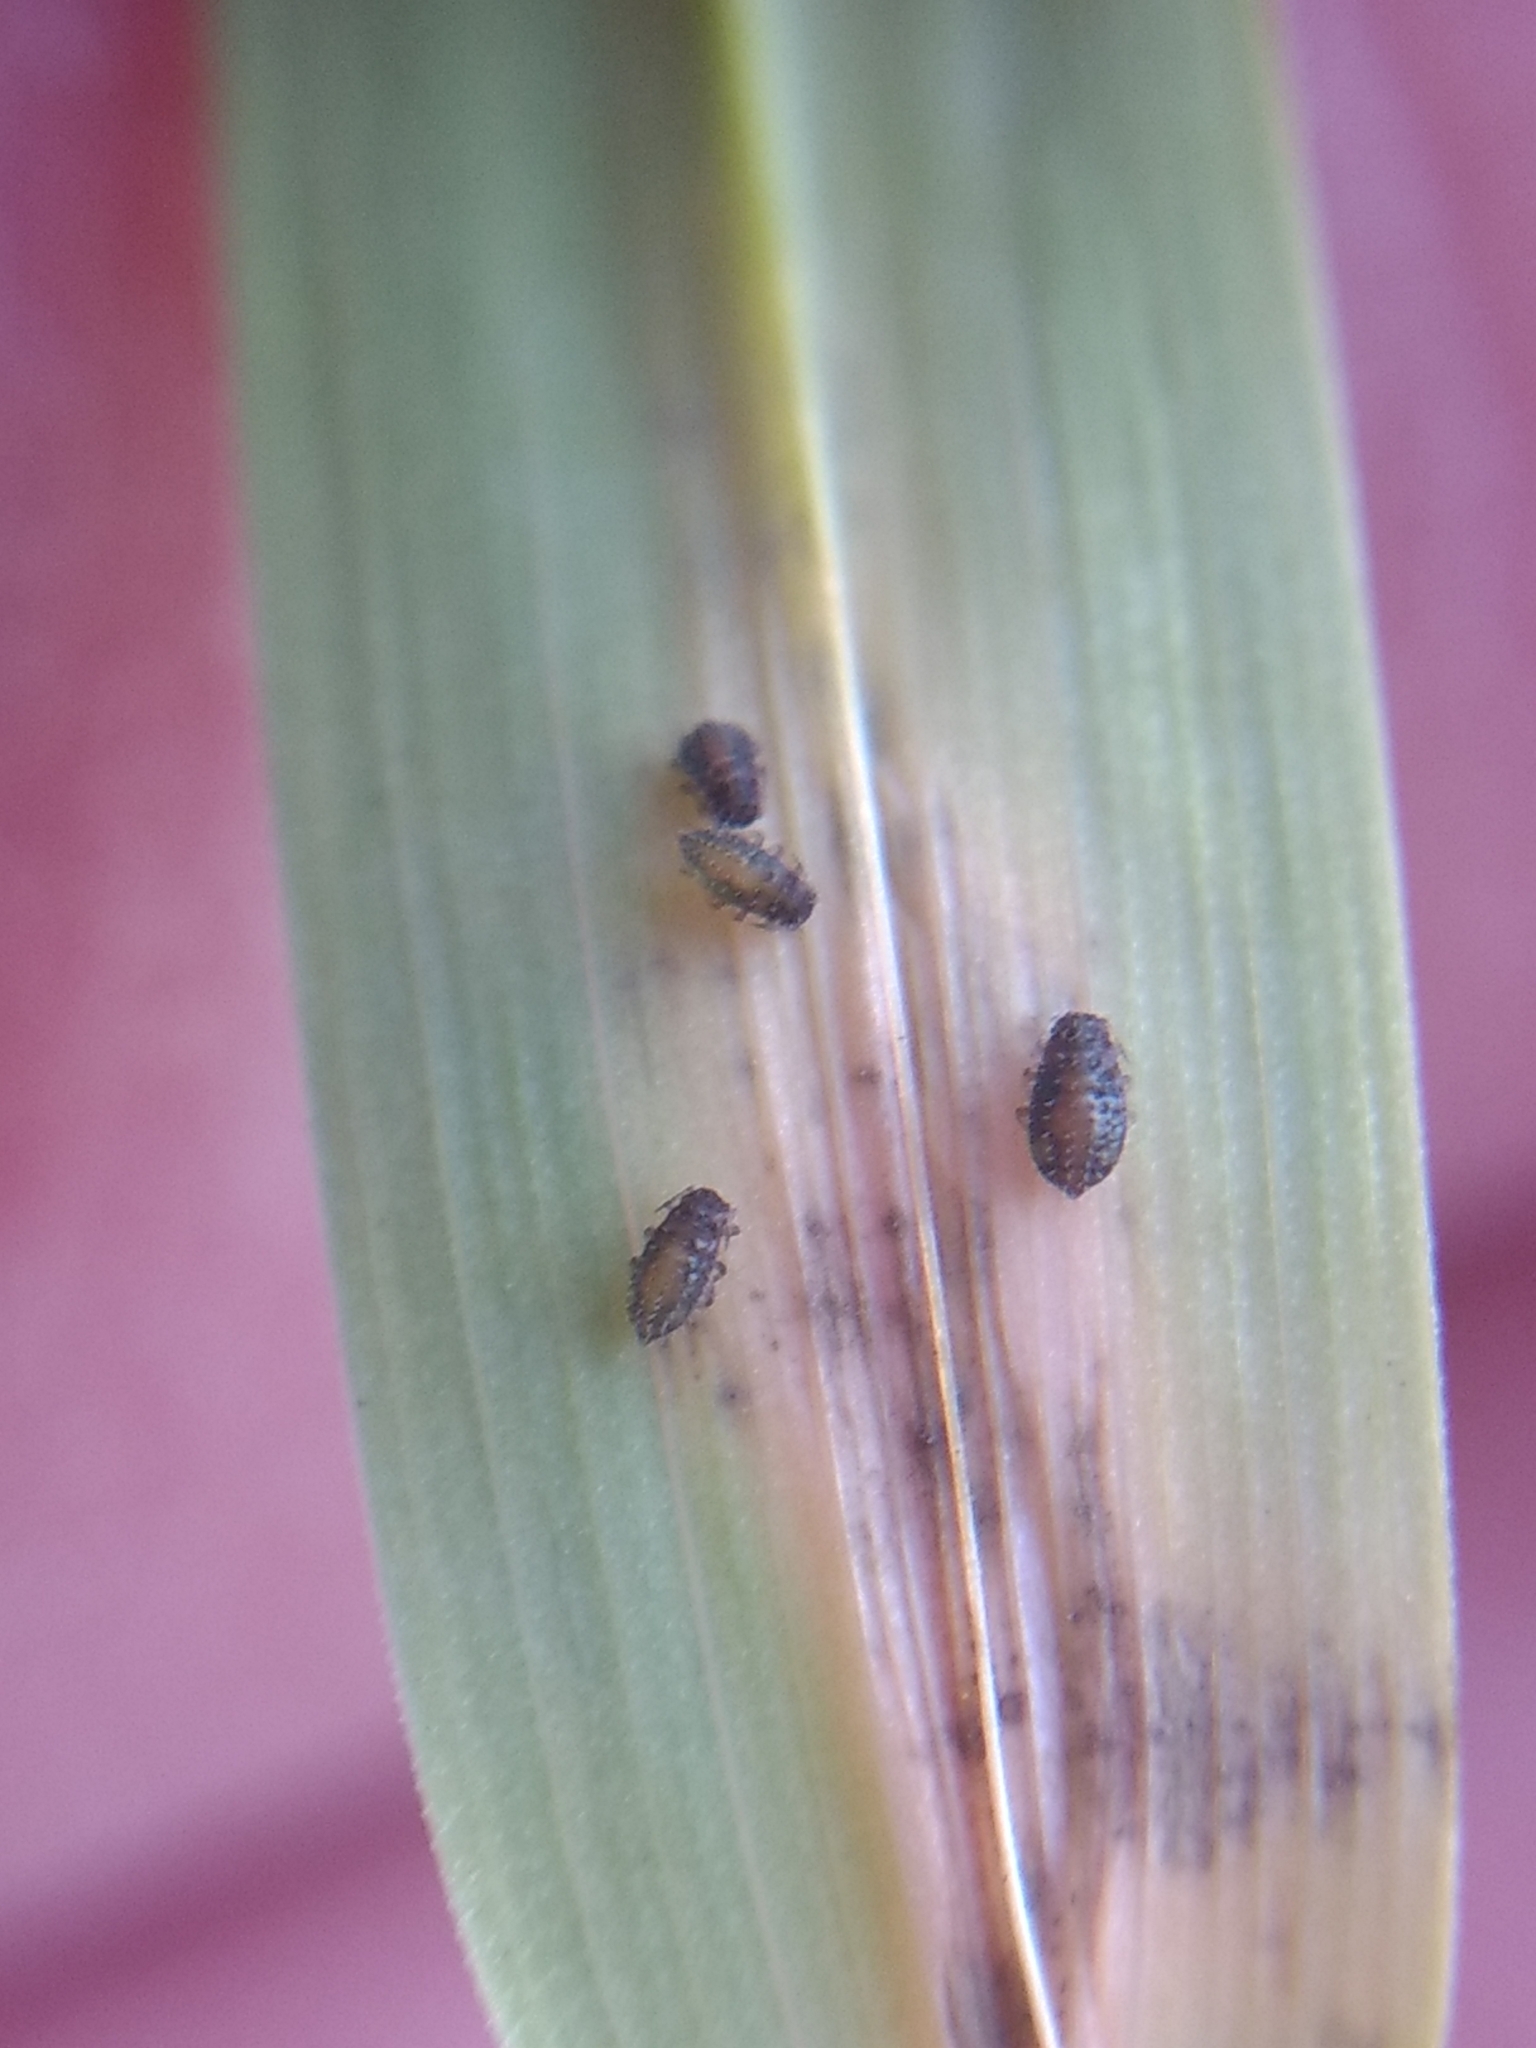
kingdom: Animalia
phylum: Arthropoda
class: Insecta
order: Hemiptera
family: Aphididae
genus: Sipha
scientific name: Sipha maydis
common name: Aphid
